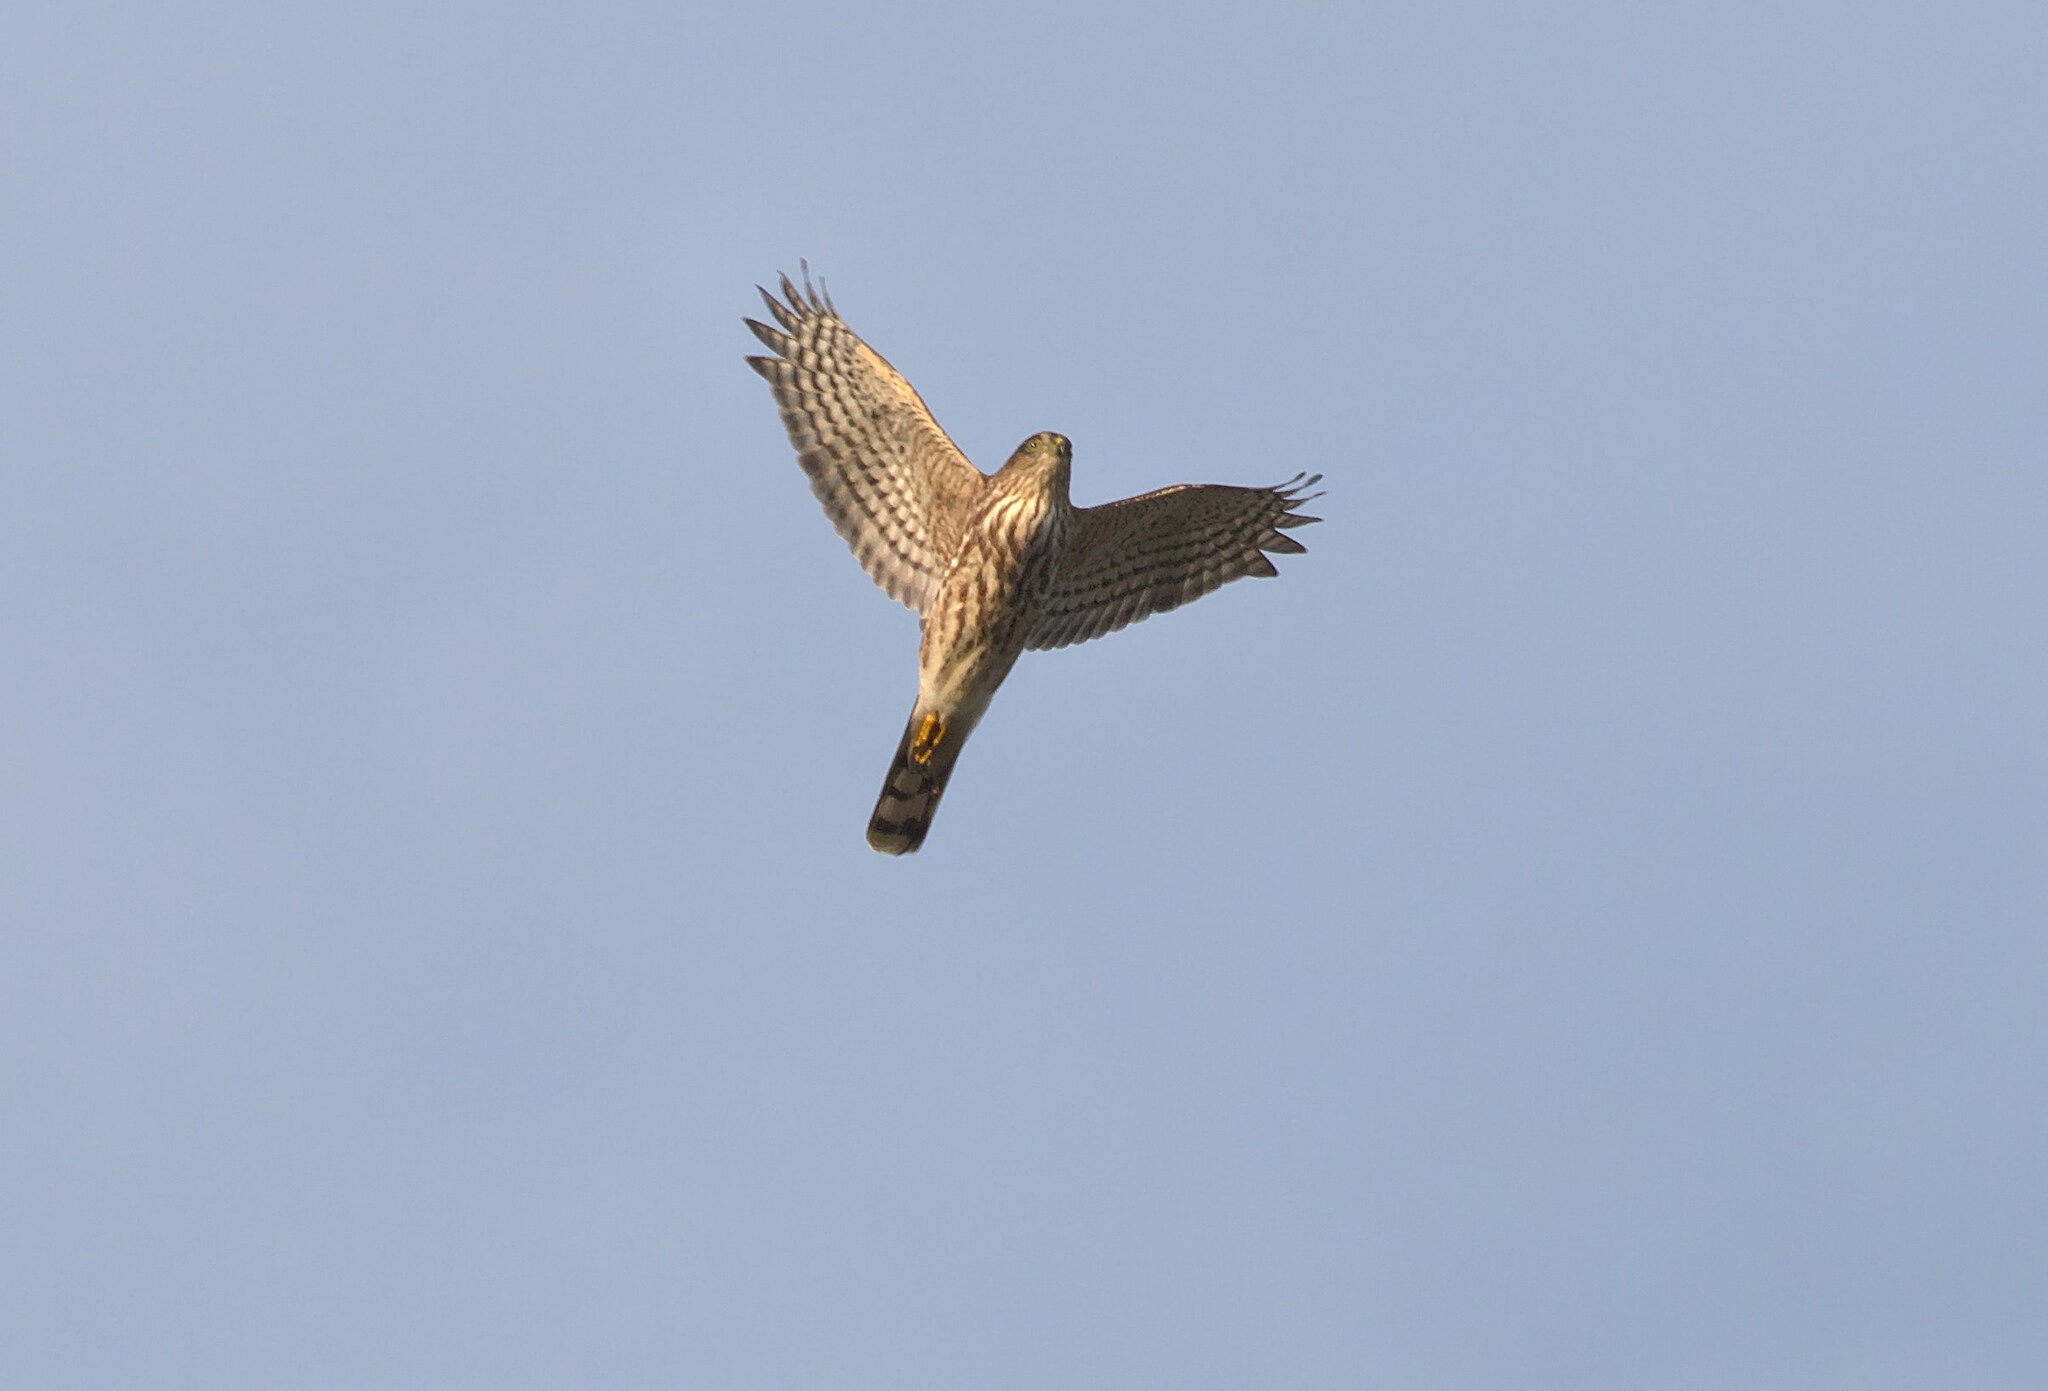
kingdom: Animalia
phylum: Chordata
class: Aves
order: Accipitriformes
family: Accipitridae
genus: Accipiter
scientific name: Accipiter striatus
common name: Sharp-shinned hawk
